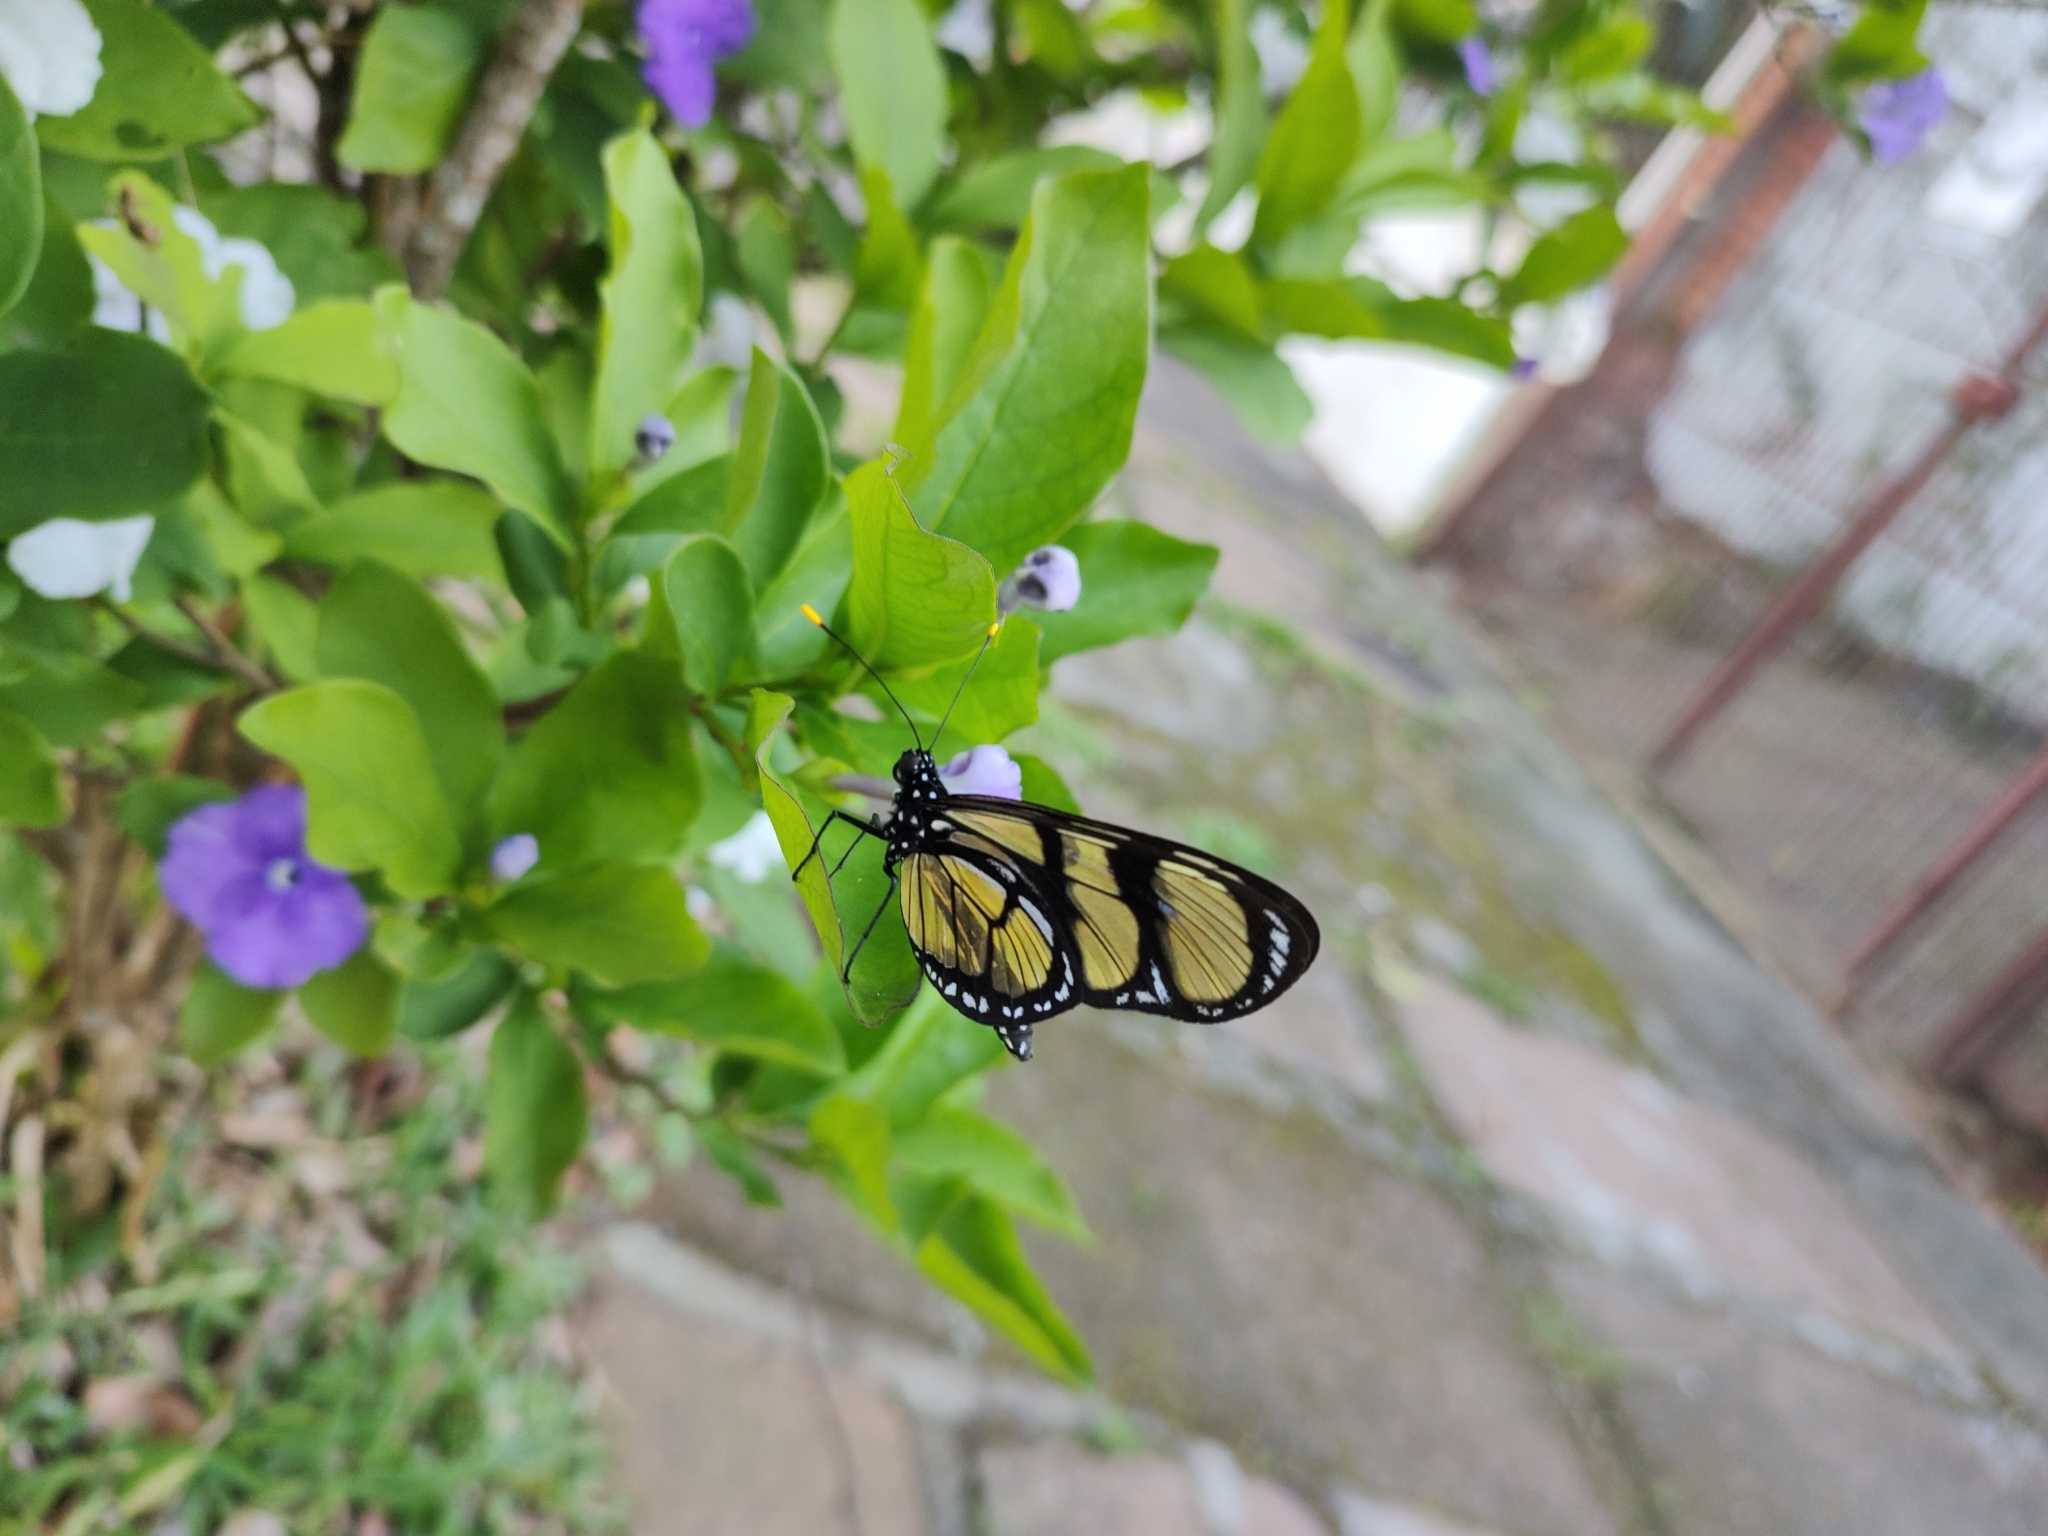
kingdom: Animalia
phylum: Arthropoda
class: Insecta
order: Lepidoptera
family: Nymphalidae
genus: Methona
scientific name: Methona themisto
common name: Themisto amberwing
